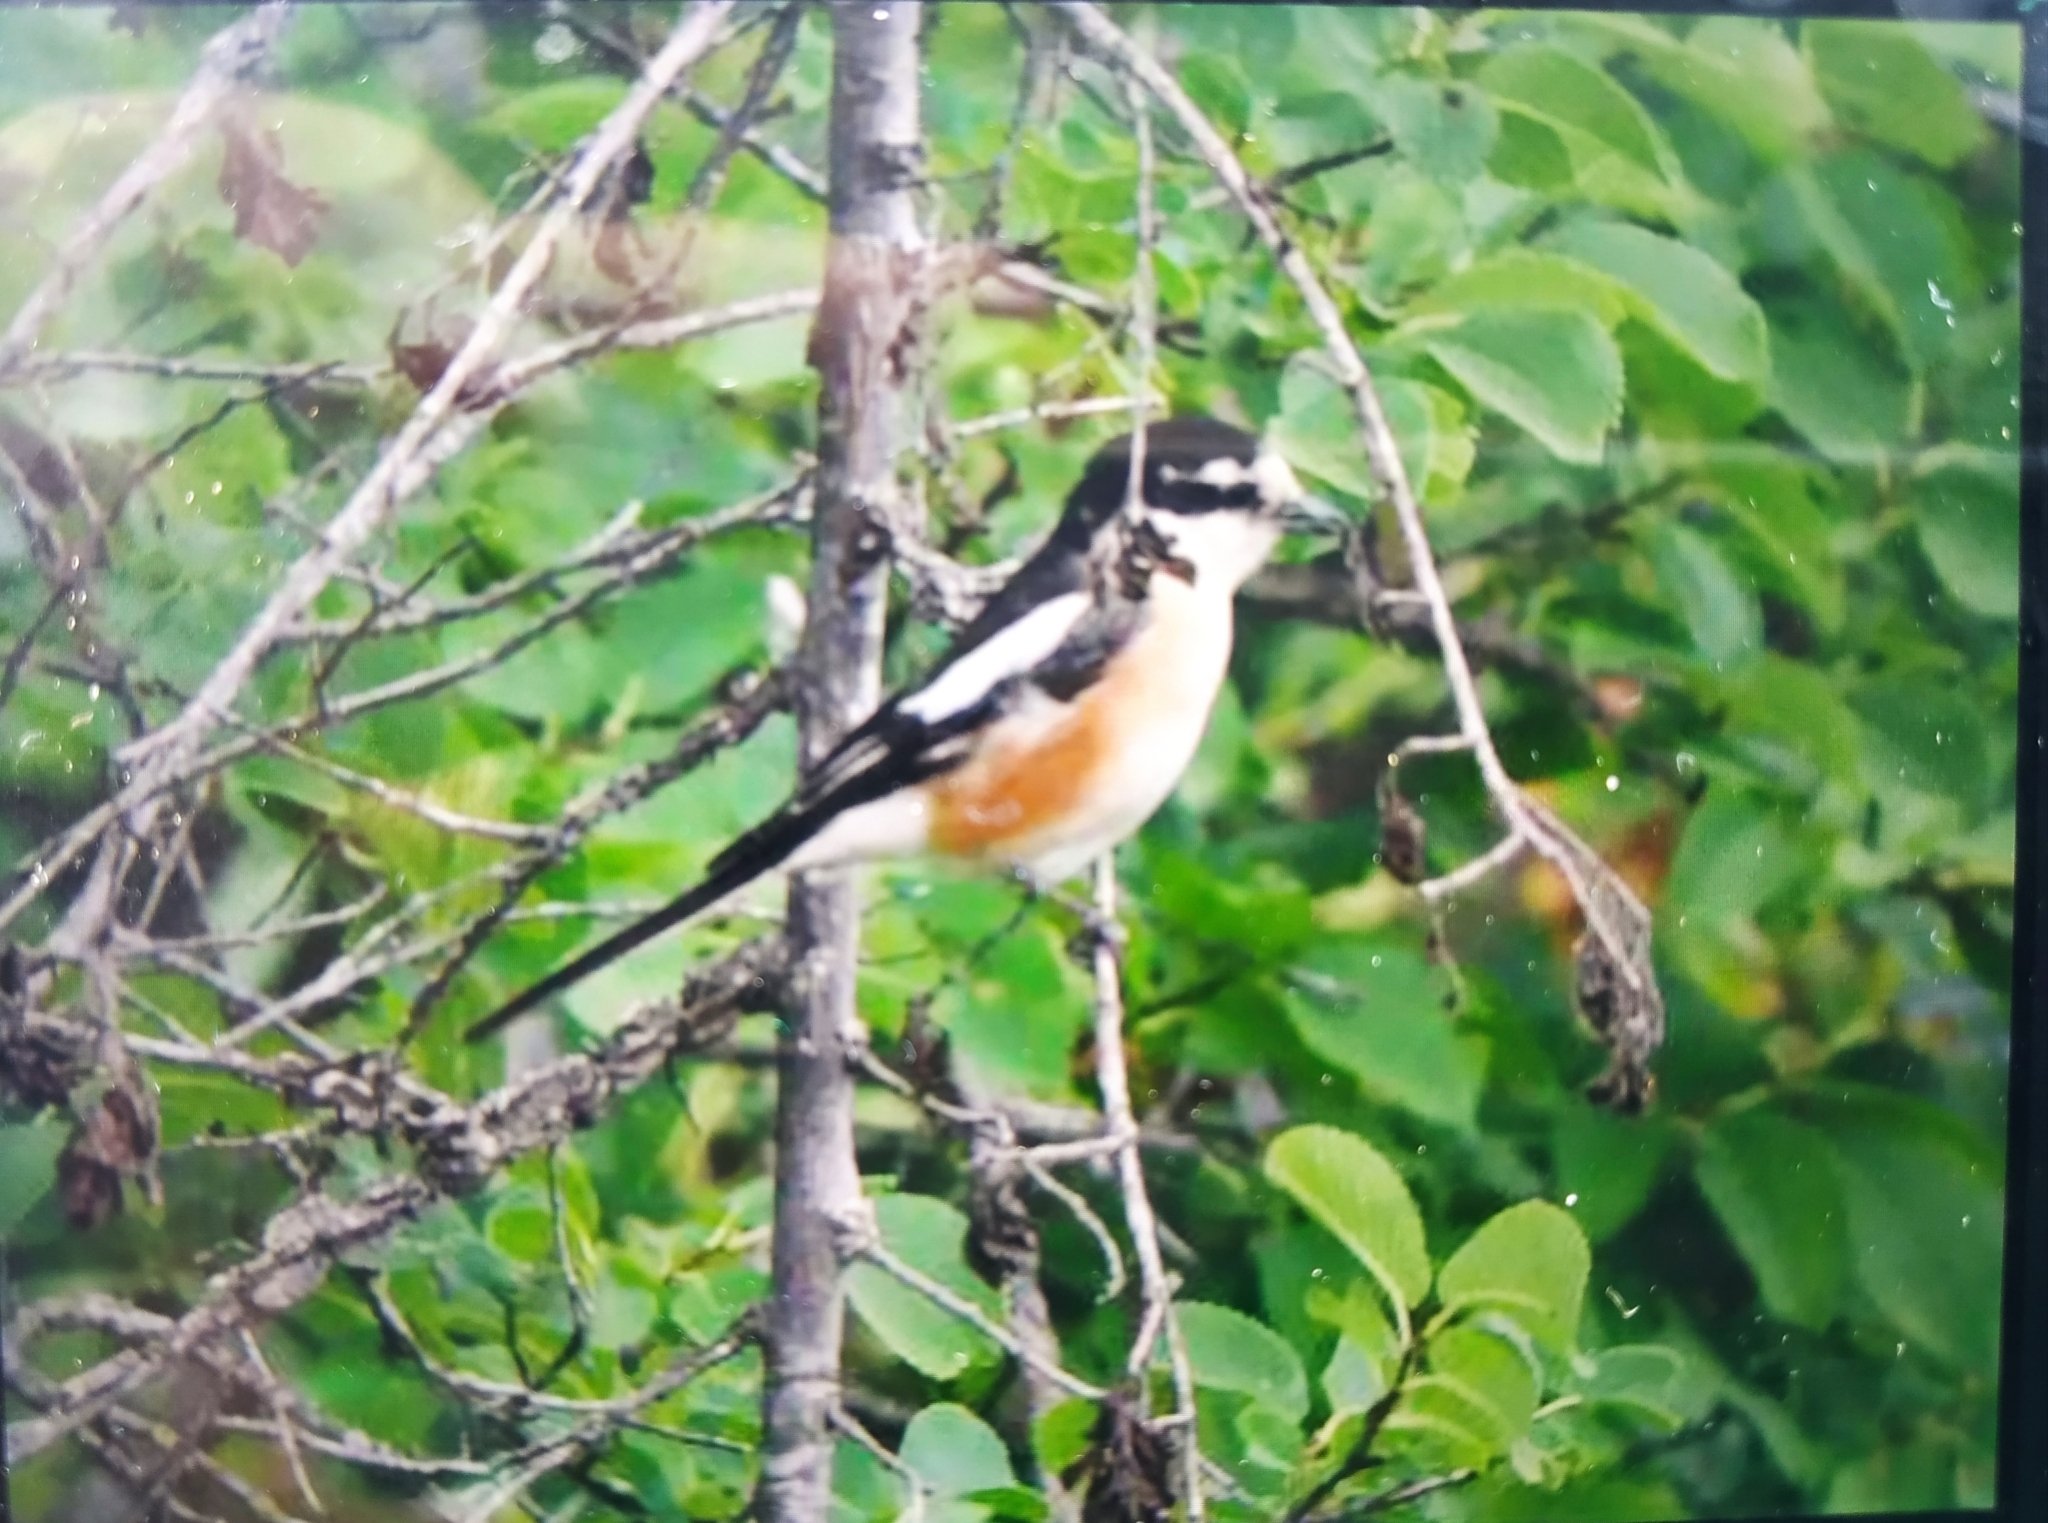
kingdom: Animalia
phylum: Chordata
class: Aves
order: Passeriformes
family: Laniidae
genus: Lanius
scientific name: Lanius nubicus
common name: Masked shrike
